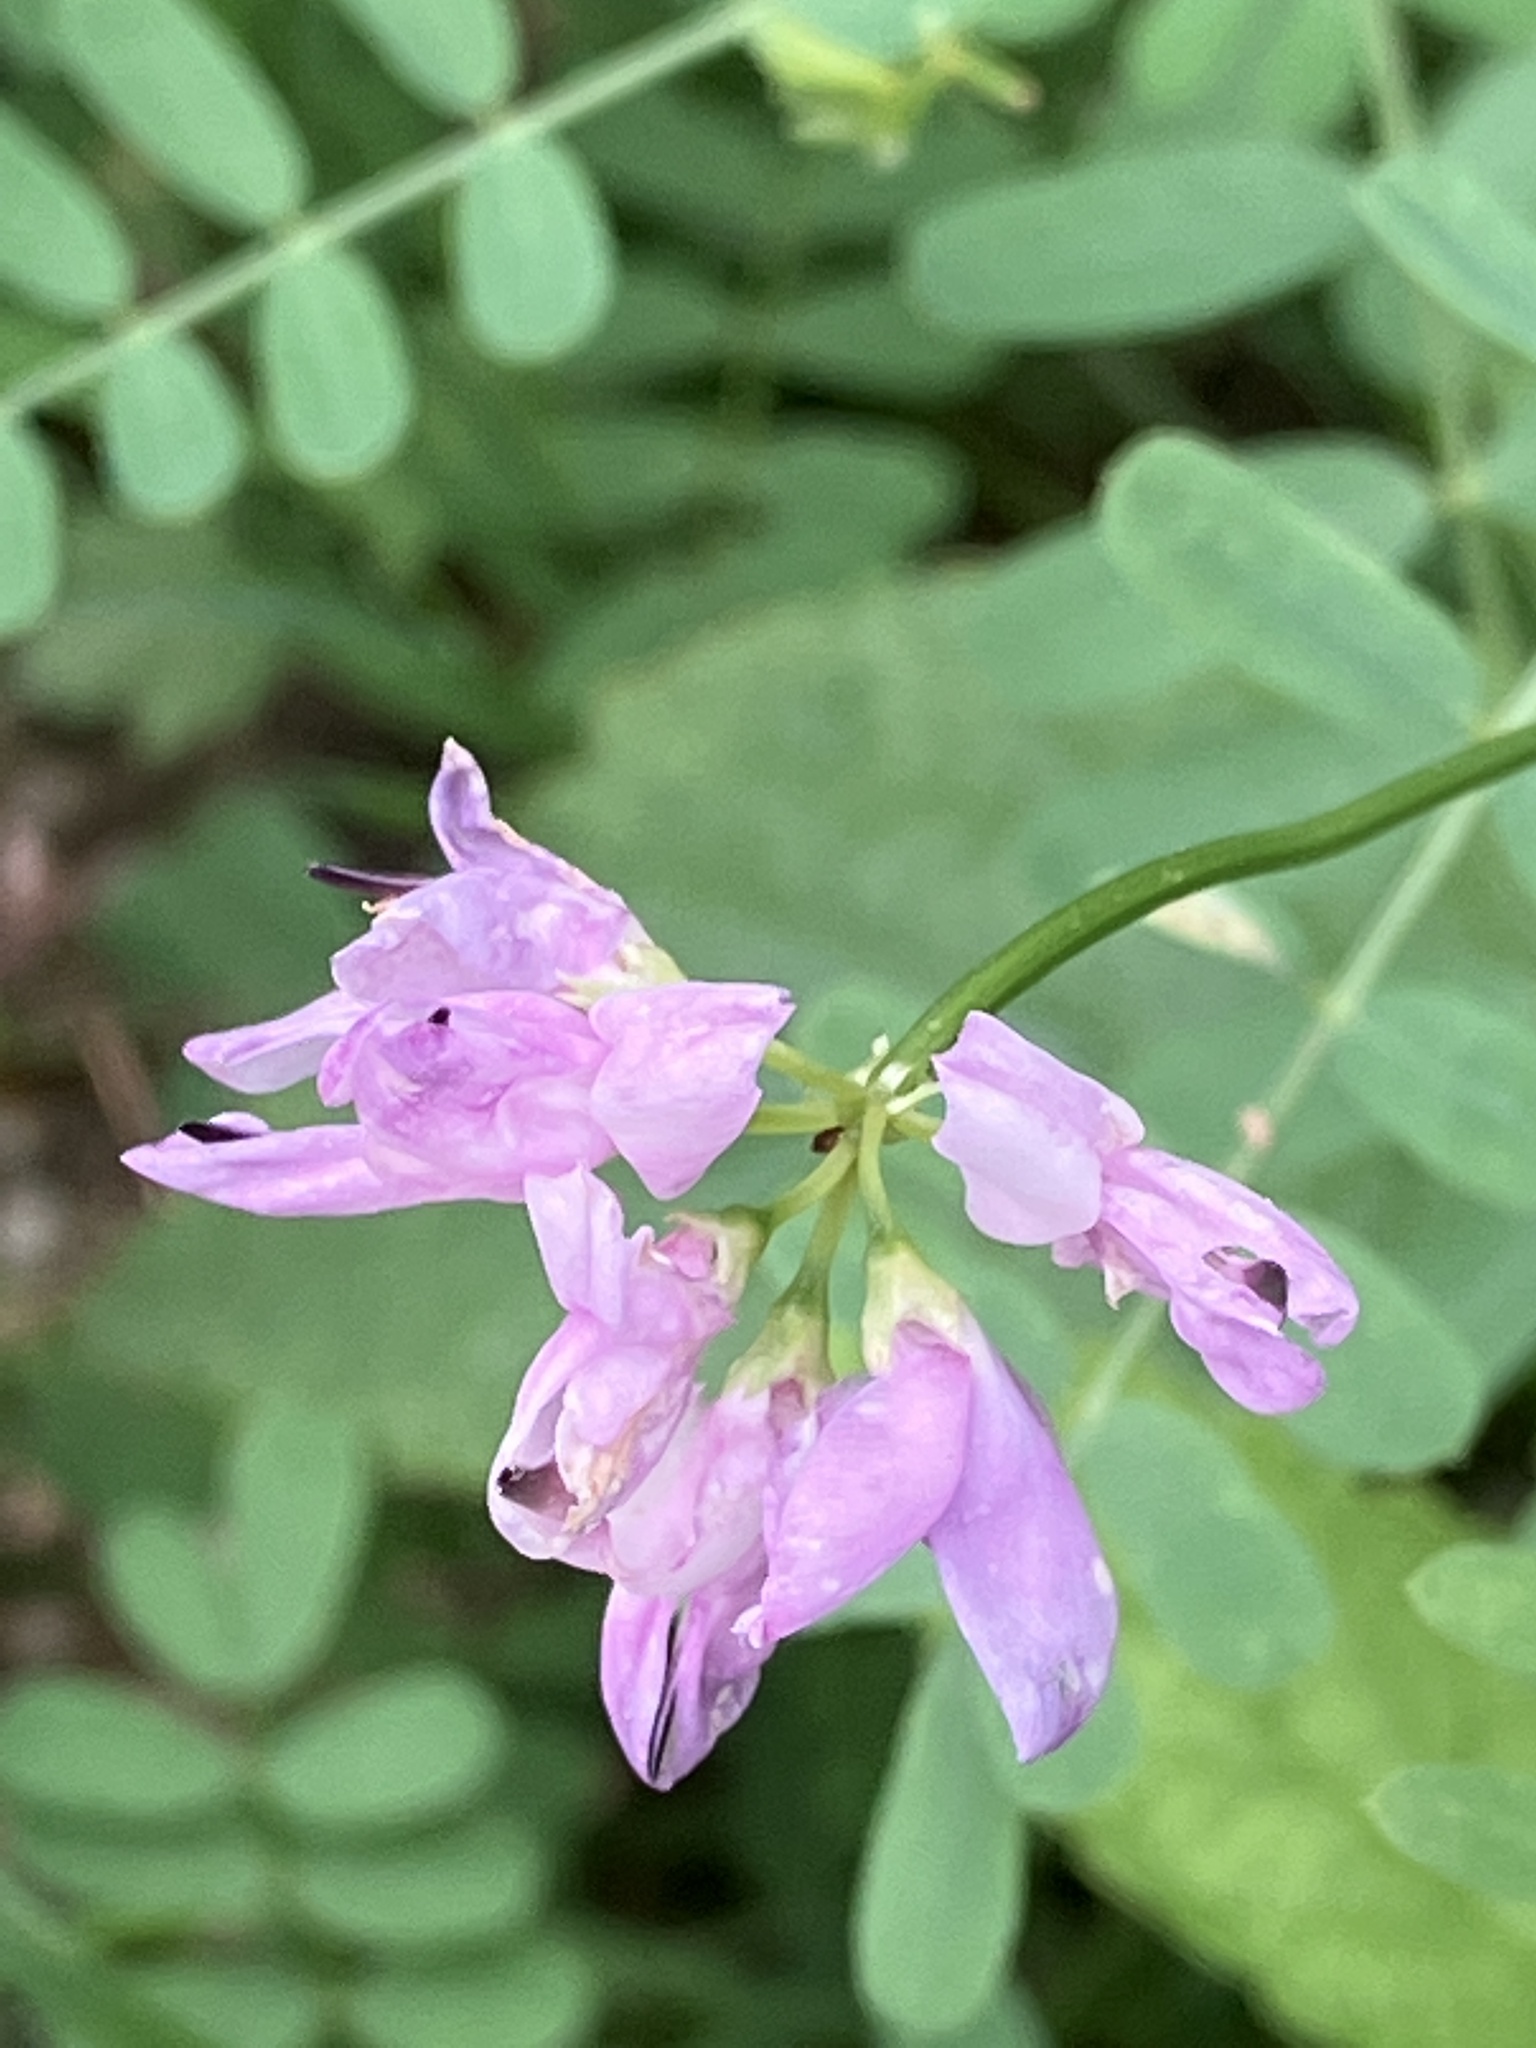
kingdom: Plantae
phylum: Tracheophyta
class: Magnoliopsida
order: Fabales
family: Fabaceae
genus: Coronilla
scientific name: Coronilla varia
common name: Crownvetch
